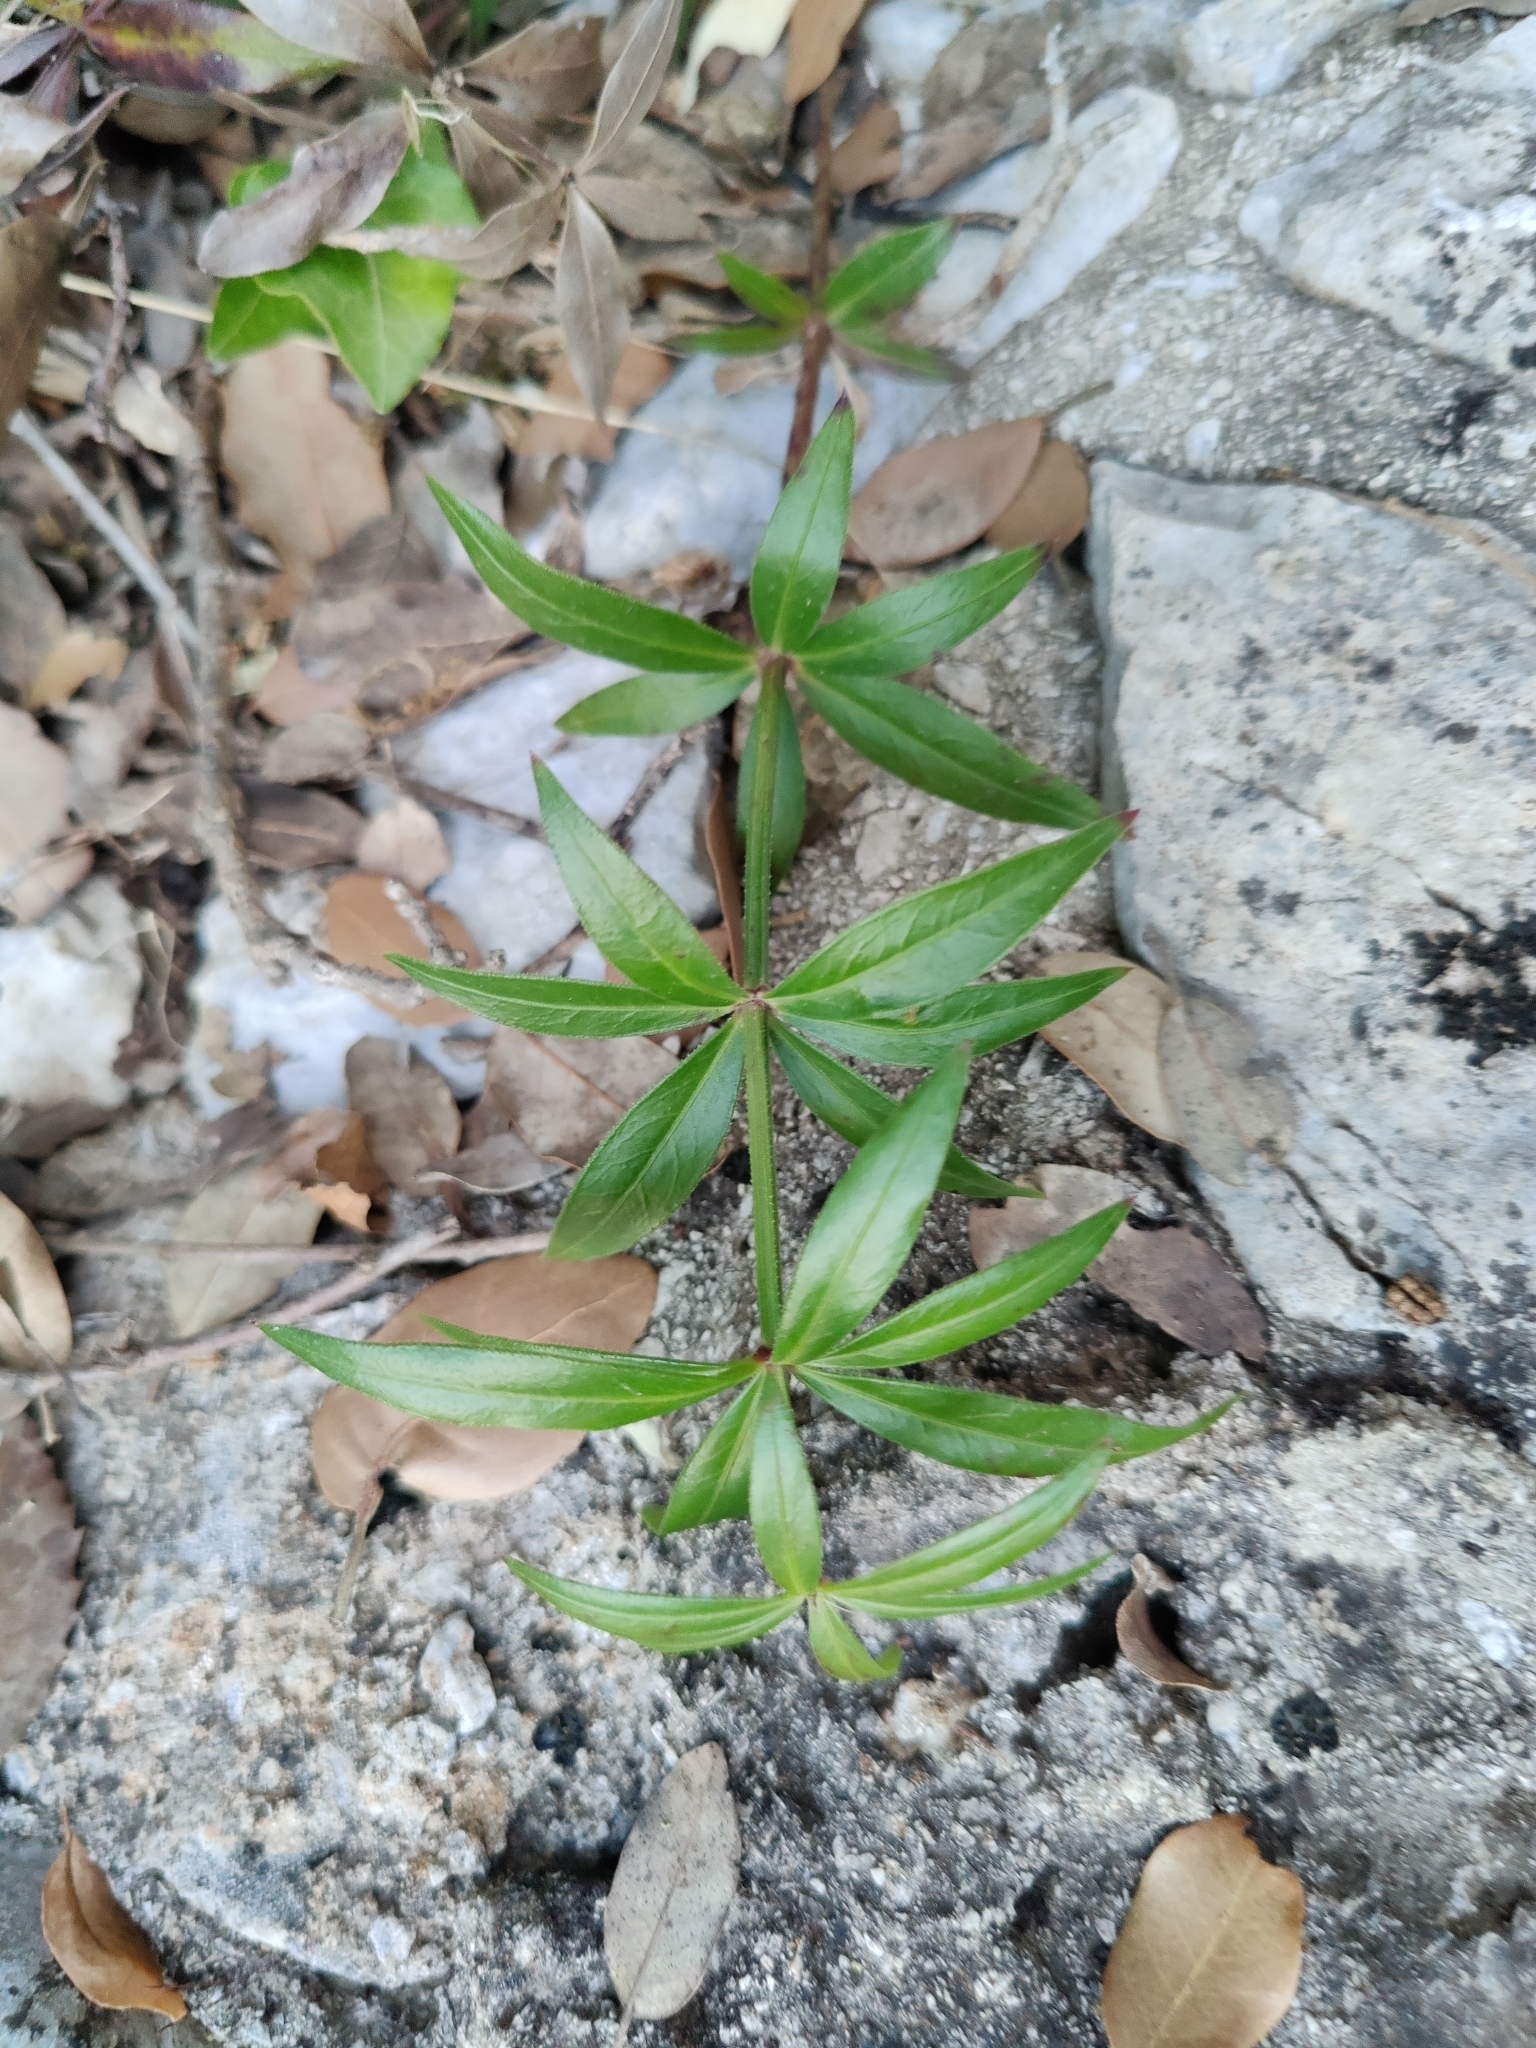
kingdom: Plantae
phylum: Tracheophyta
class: Magnoliopsida
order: Gentianales
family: Rubiaceae
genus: Rubia
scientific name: Rubia peregrina
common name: Wild madder
